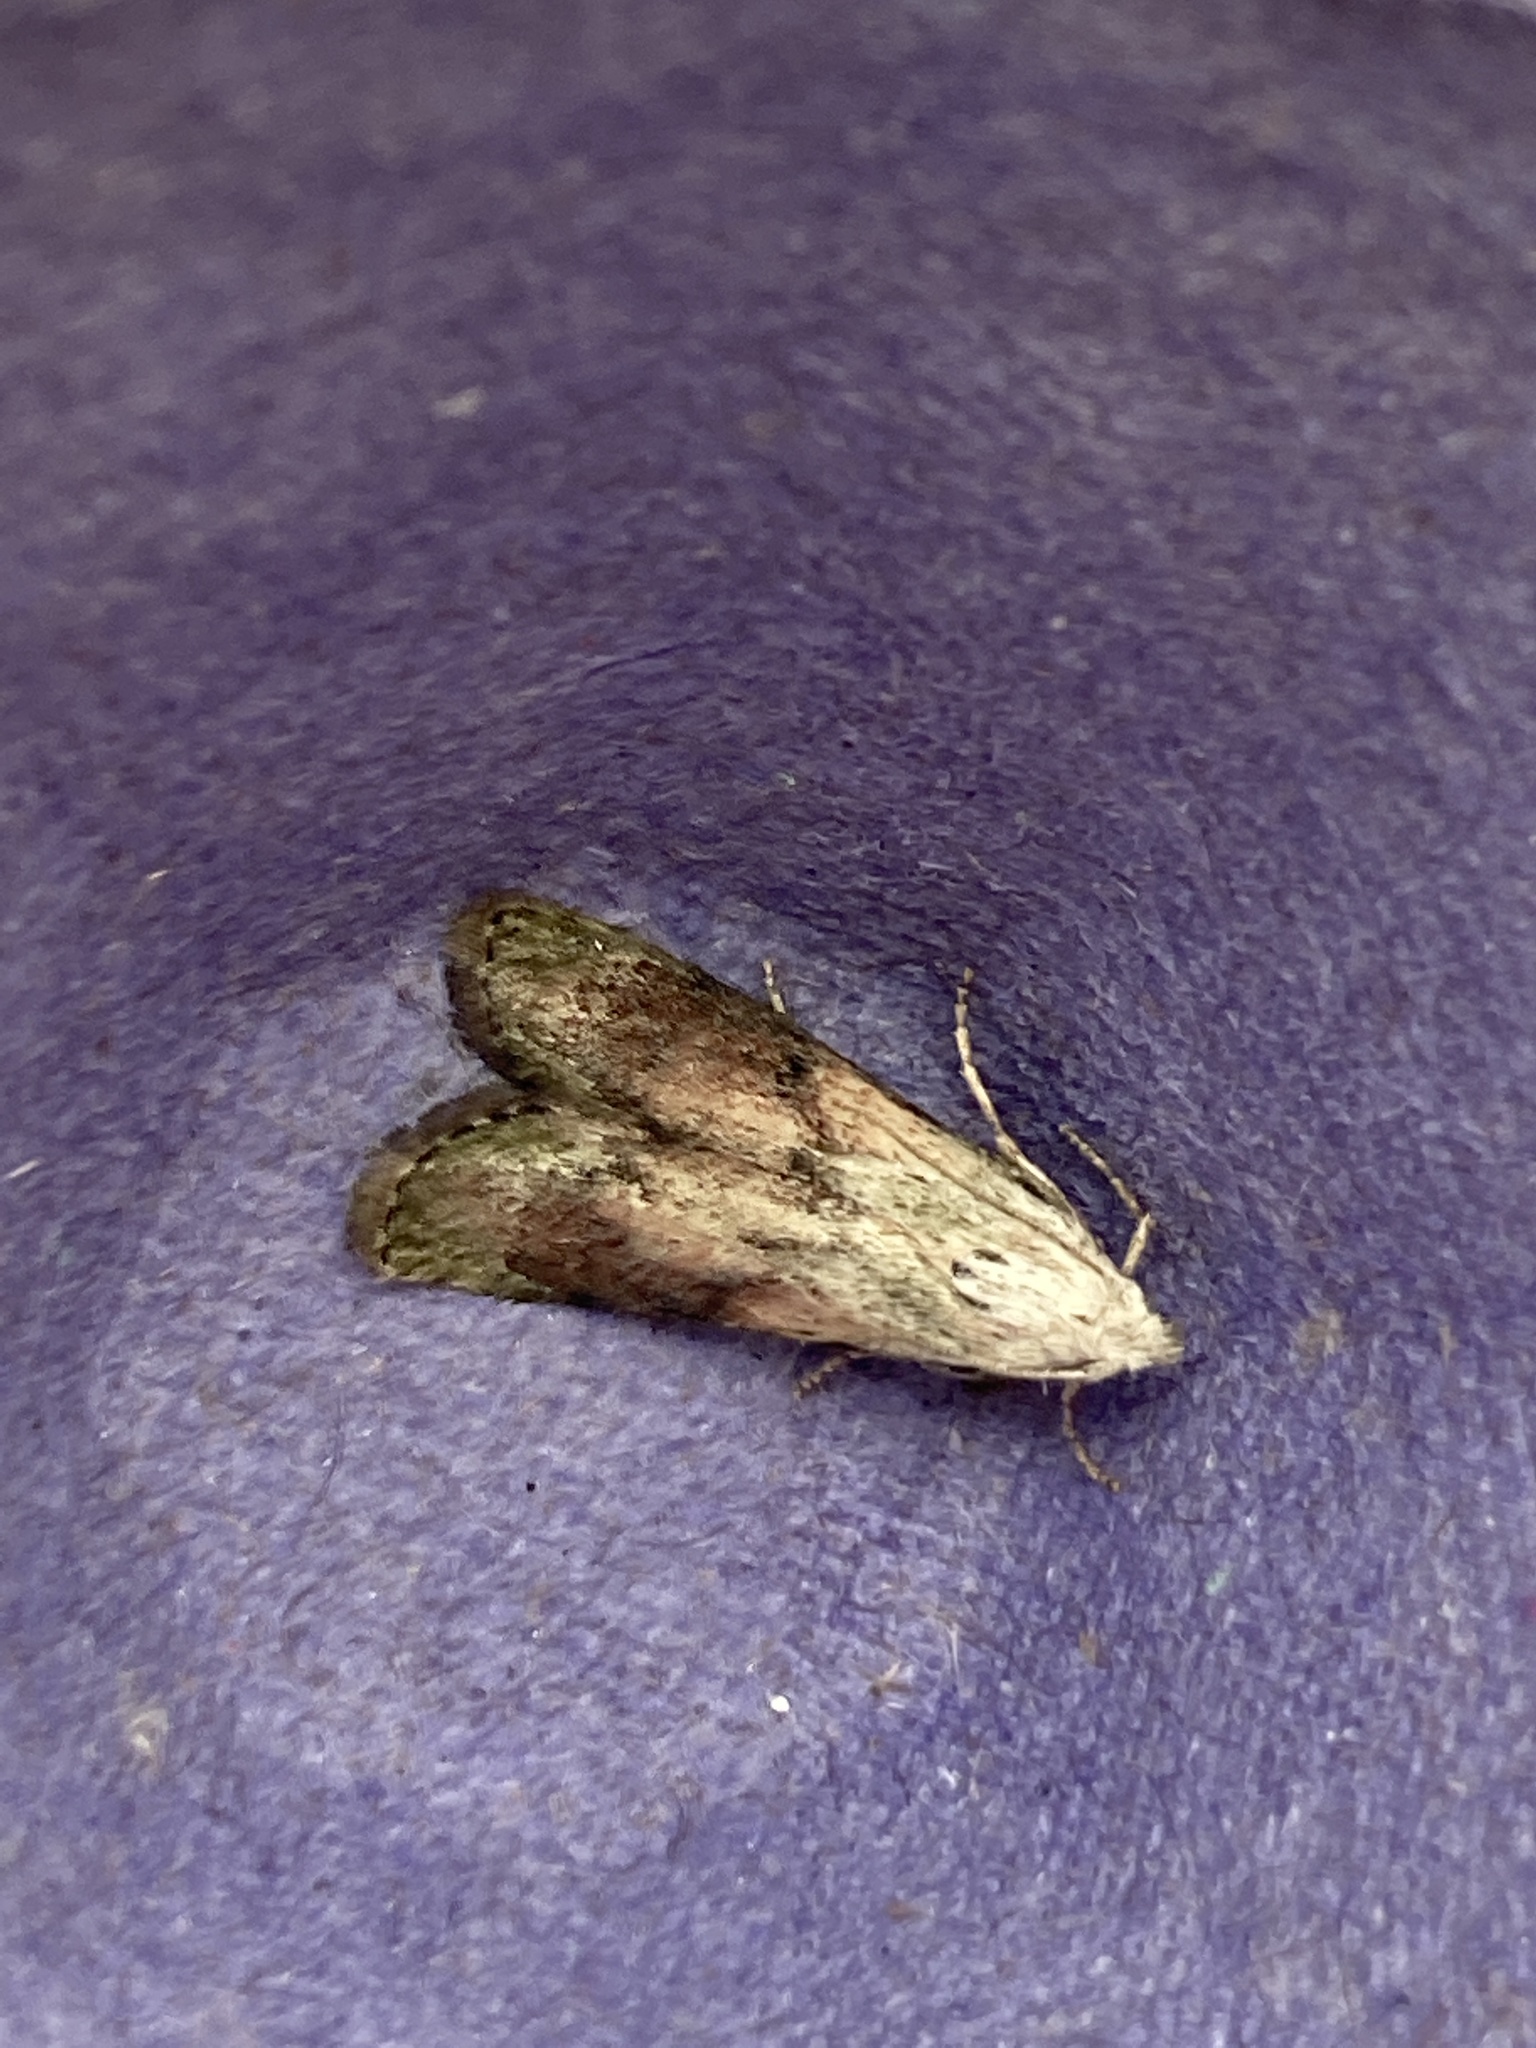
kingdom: Animalia
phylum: Arthropoda
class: Insecta
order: Lepidoptera
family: Pyralidae
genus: Aphomia
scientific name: Aphomia sociella
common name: Bee moth
